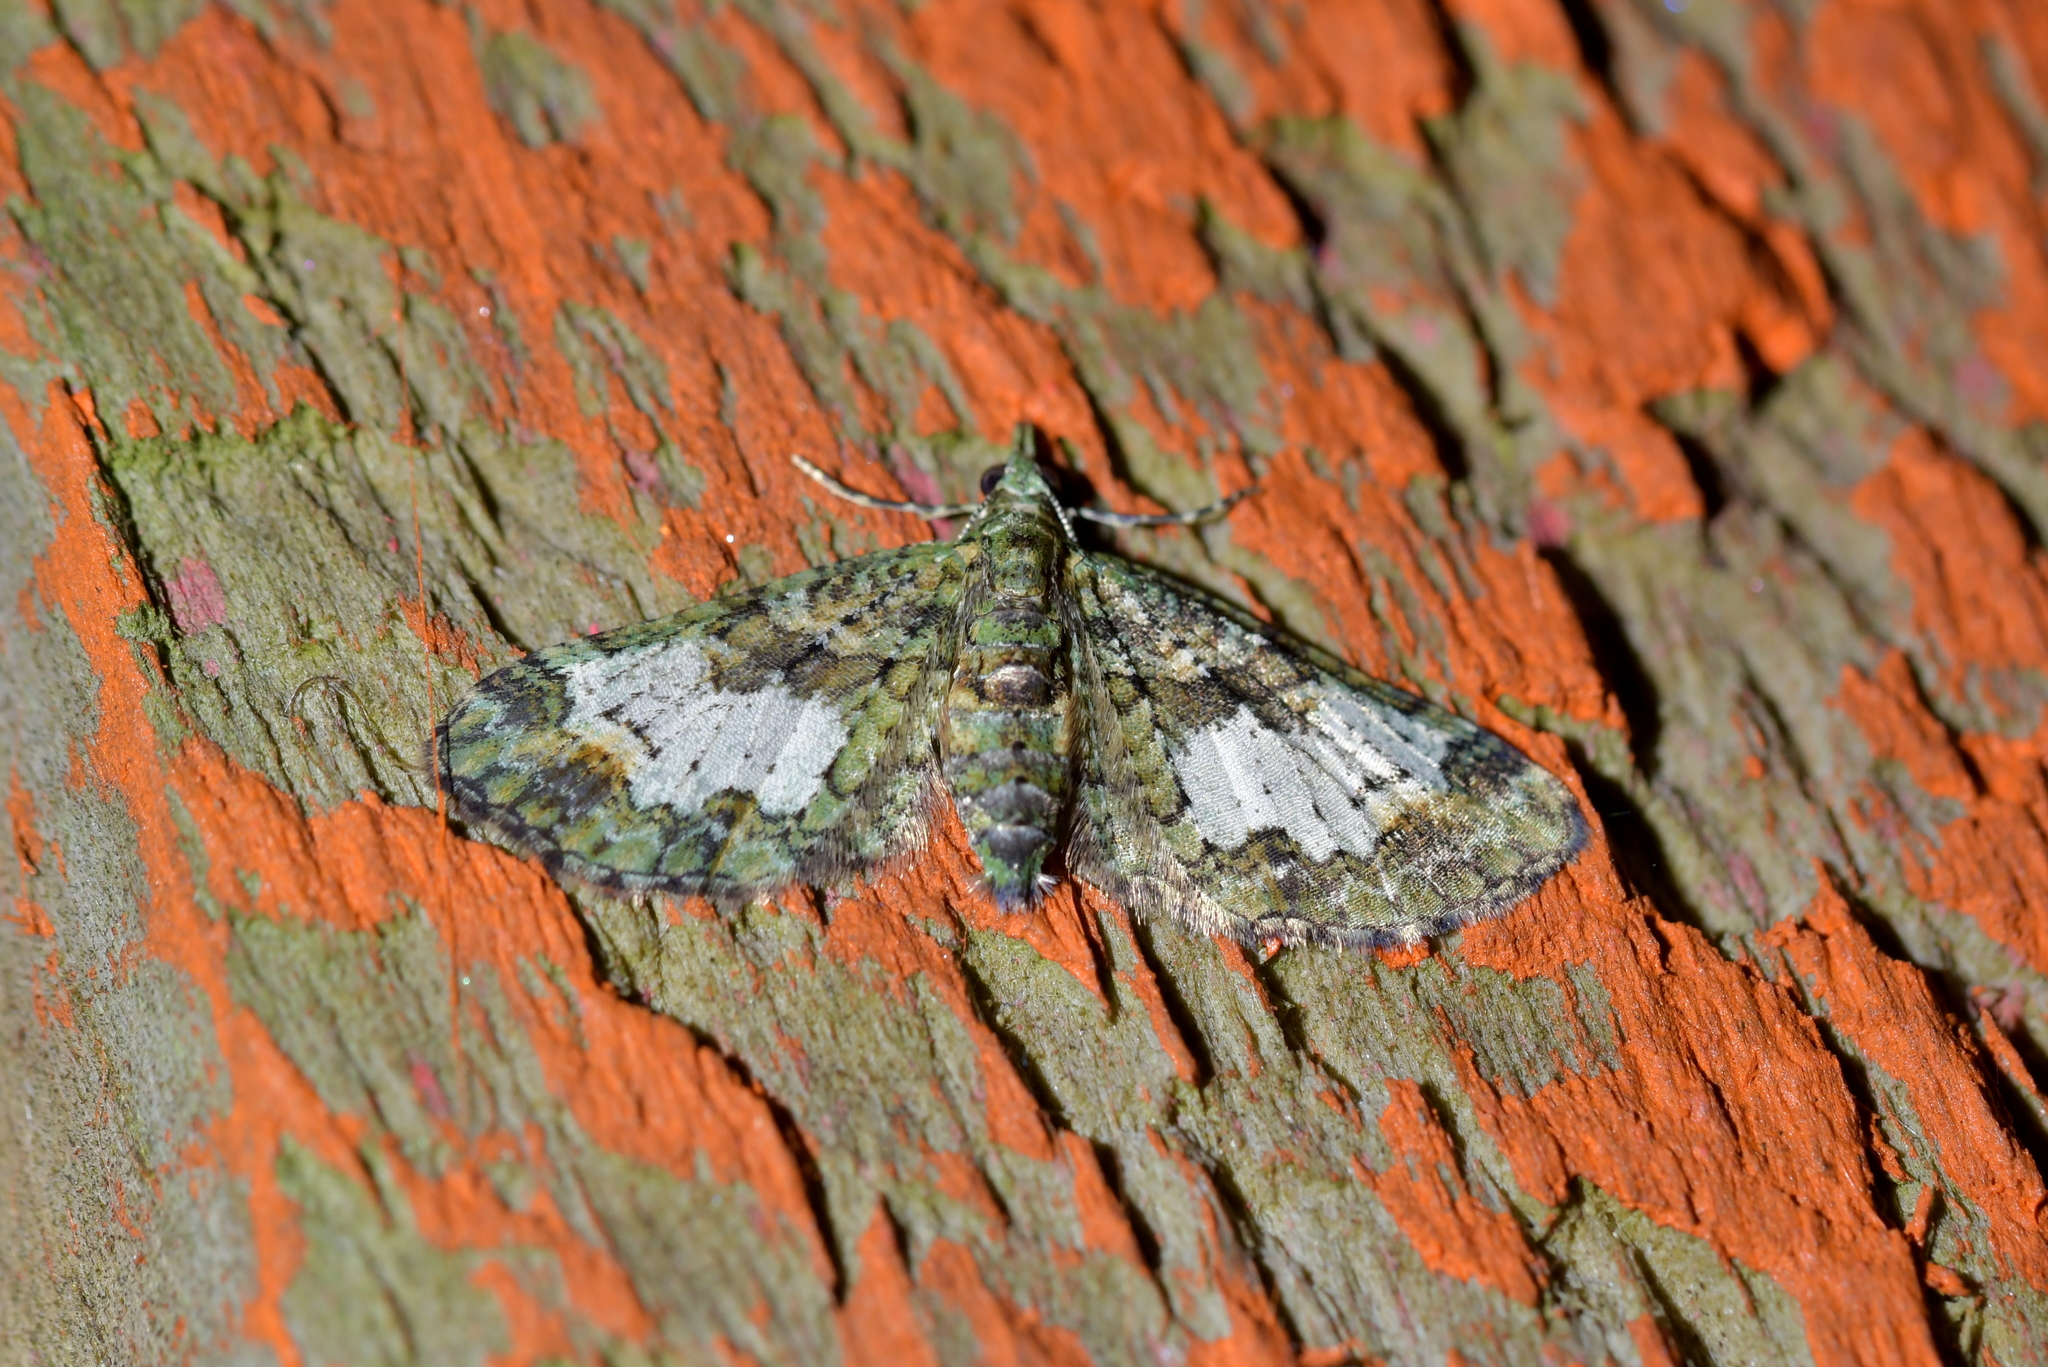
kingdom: Animalia
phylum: Arthropoda
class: Insecta
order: Lepidoptera
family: Geometridae
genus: Idaea
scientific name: Idaea mutanda
